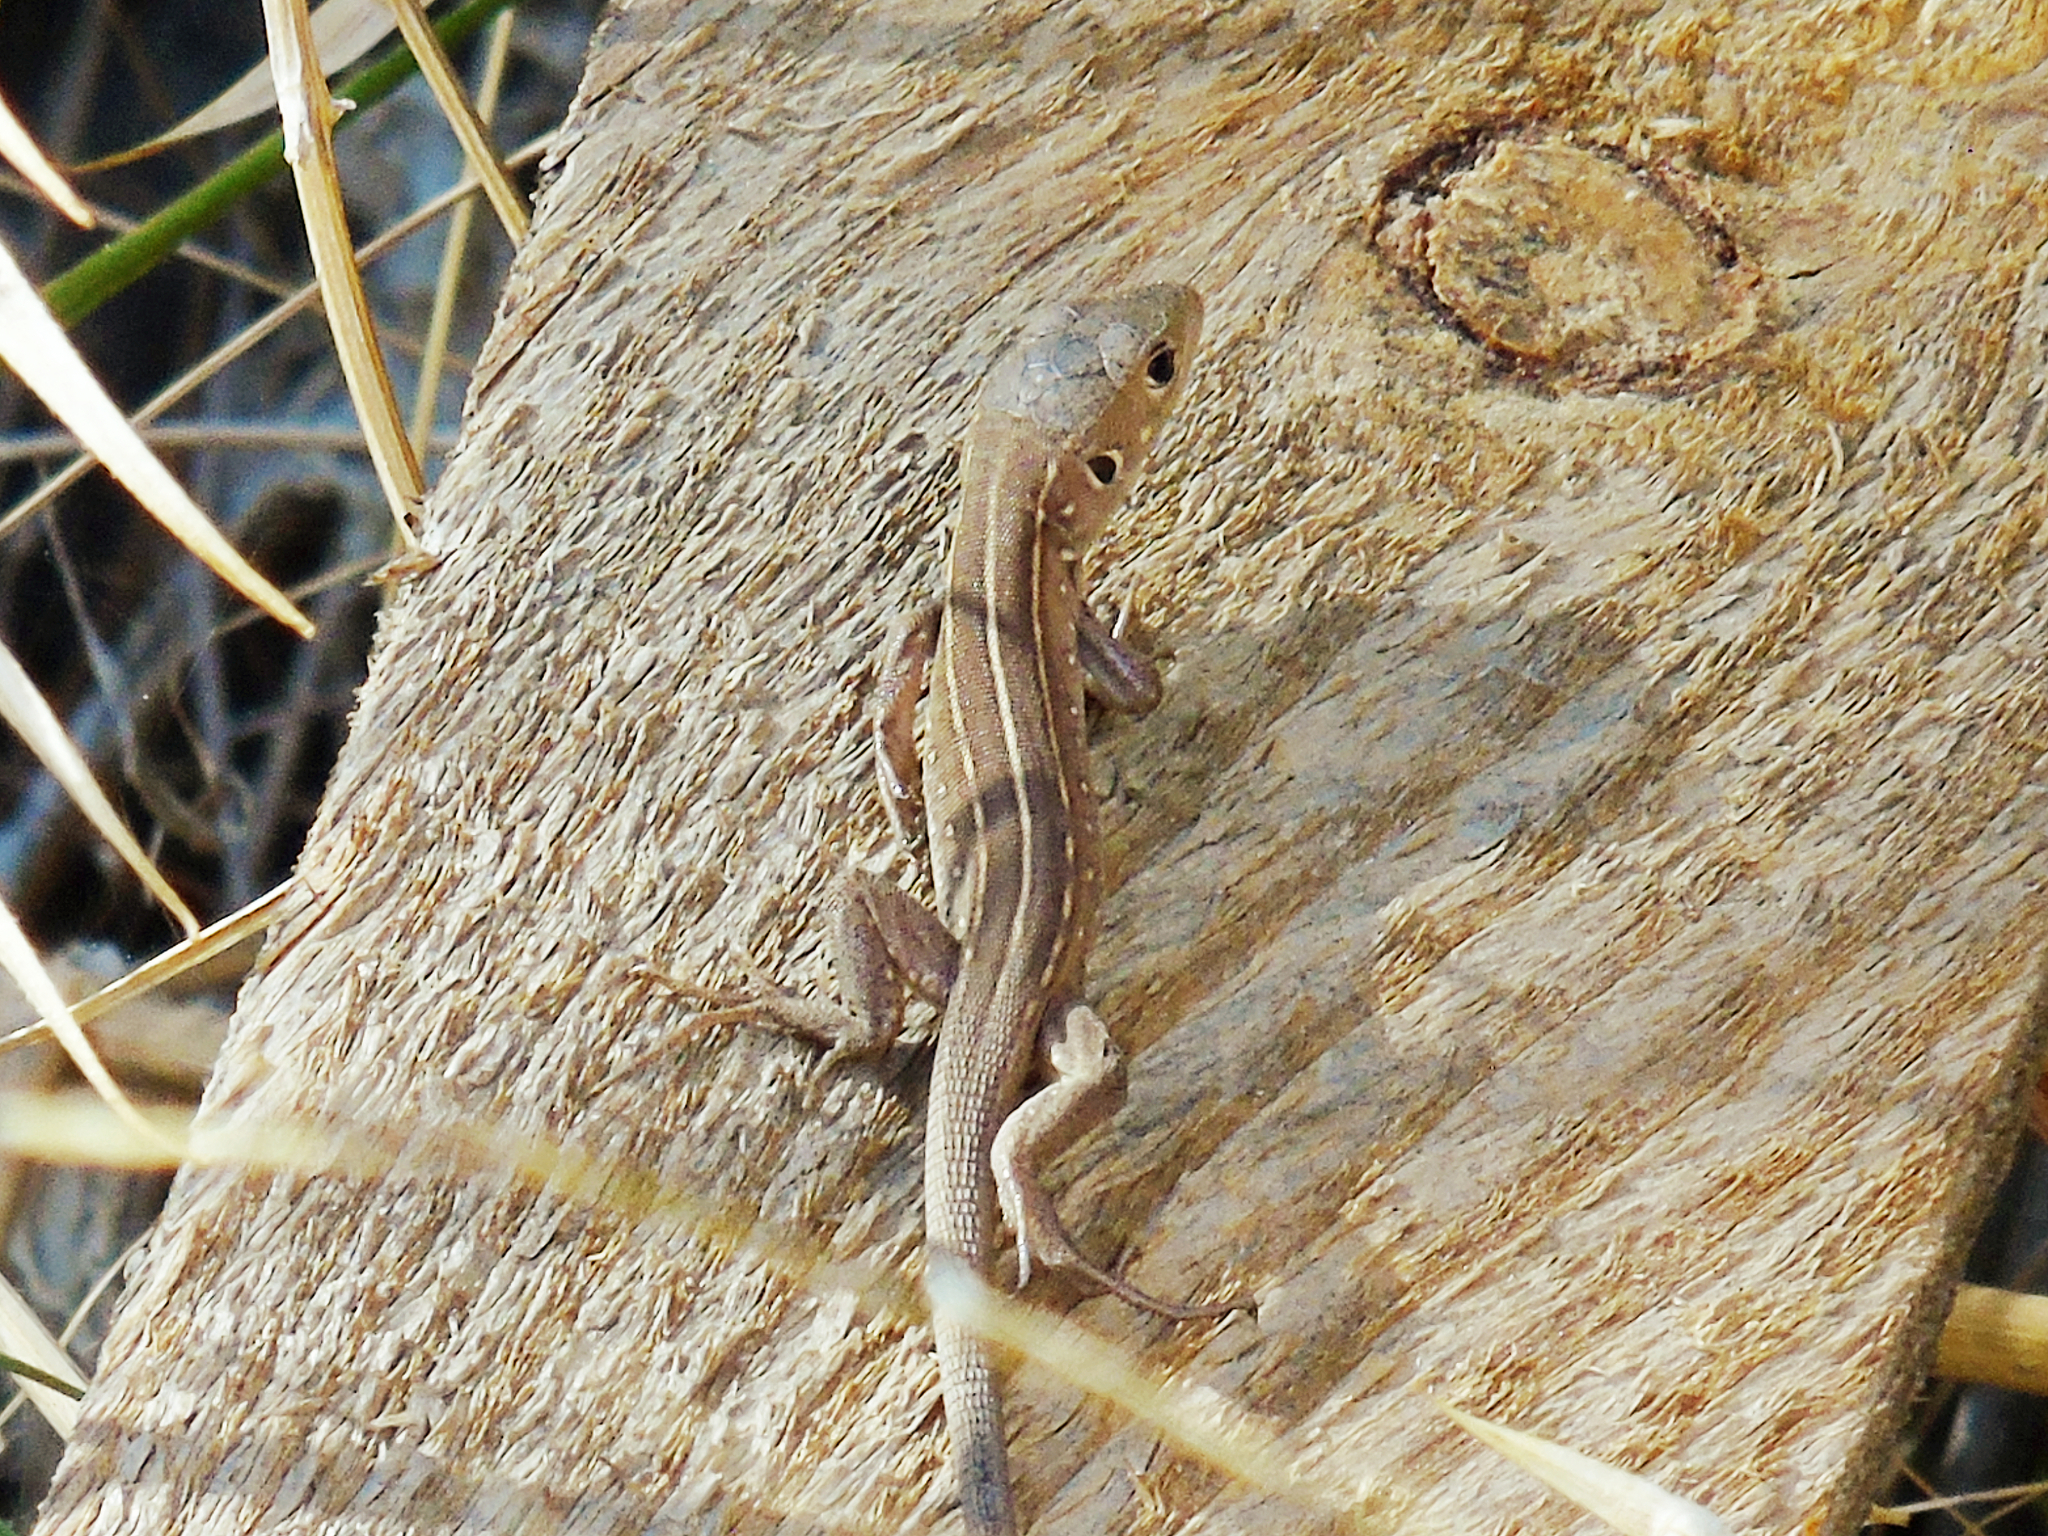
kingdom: Animalia
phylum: Chordata
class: Squamata
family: Lacertidae
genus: Lacerta
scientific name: Lacerta trilineata
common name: Balkan green lizard
